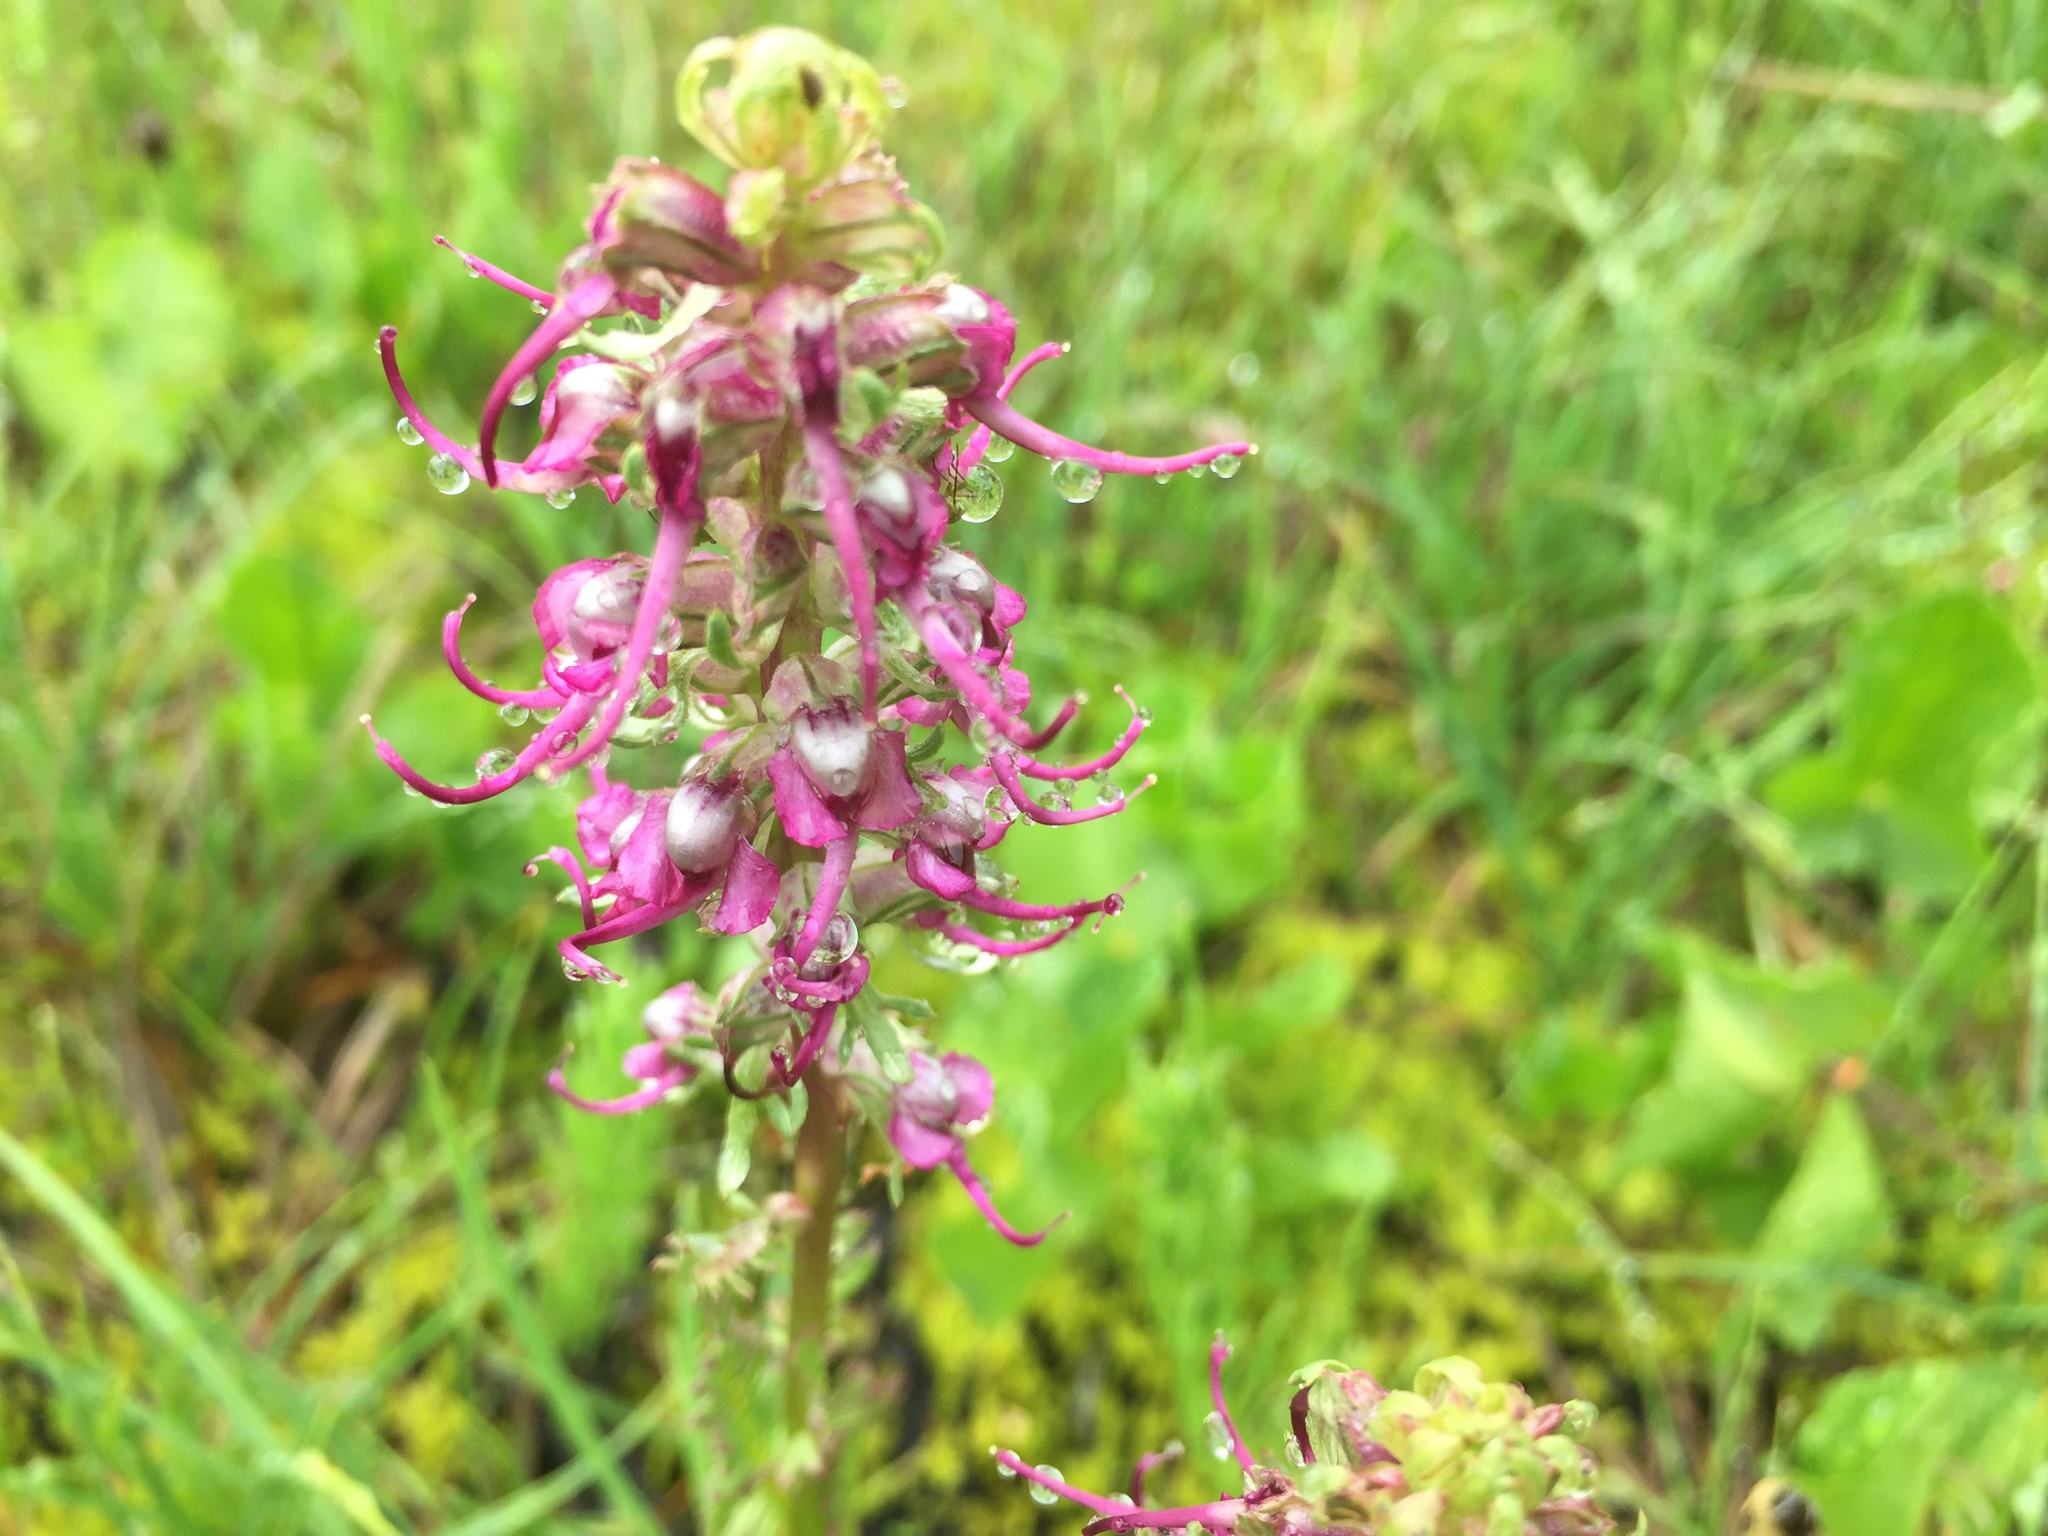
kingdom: Plantae
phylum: Tracheophyta
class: Magnoliopsida
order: Lamiales
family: Orobanchaceae
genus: Pedicularis
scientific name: Pedicularis groenlandica
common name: Elephant's-head
